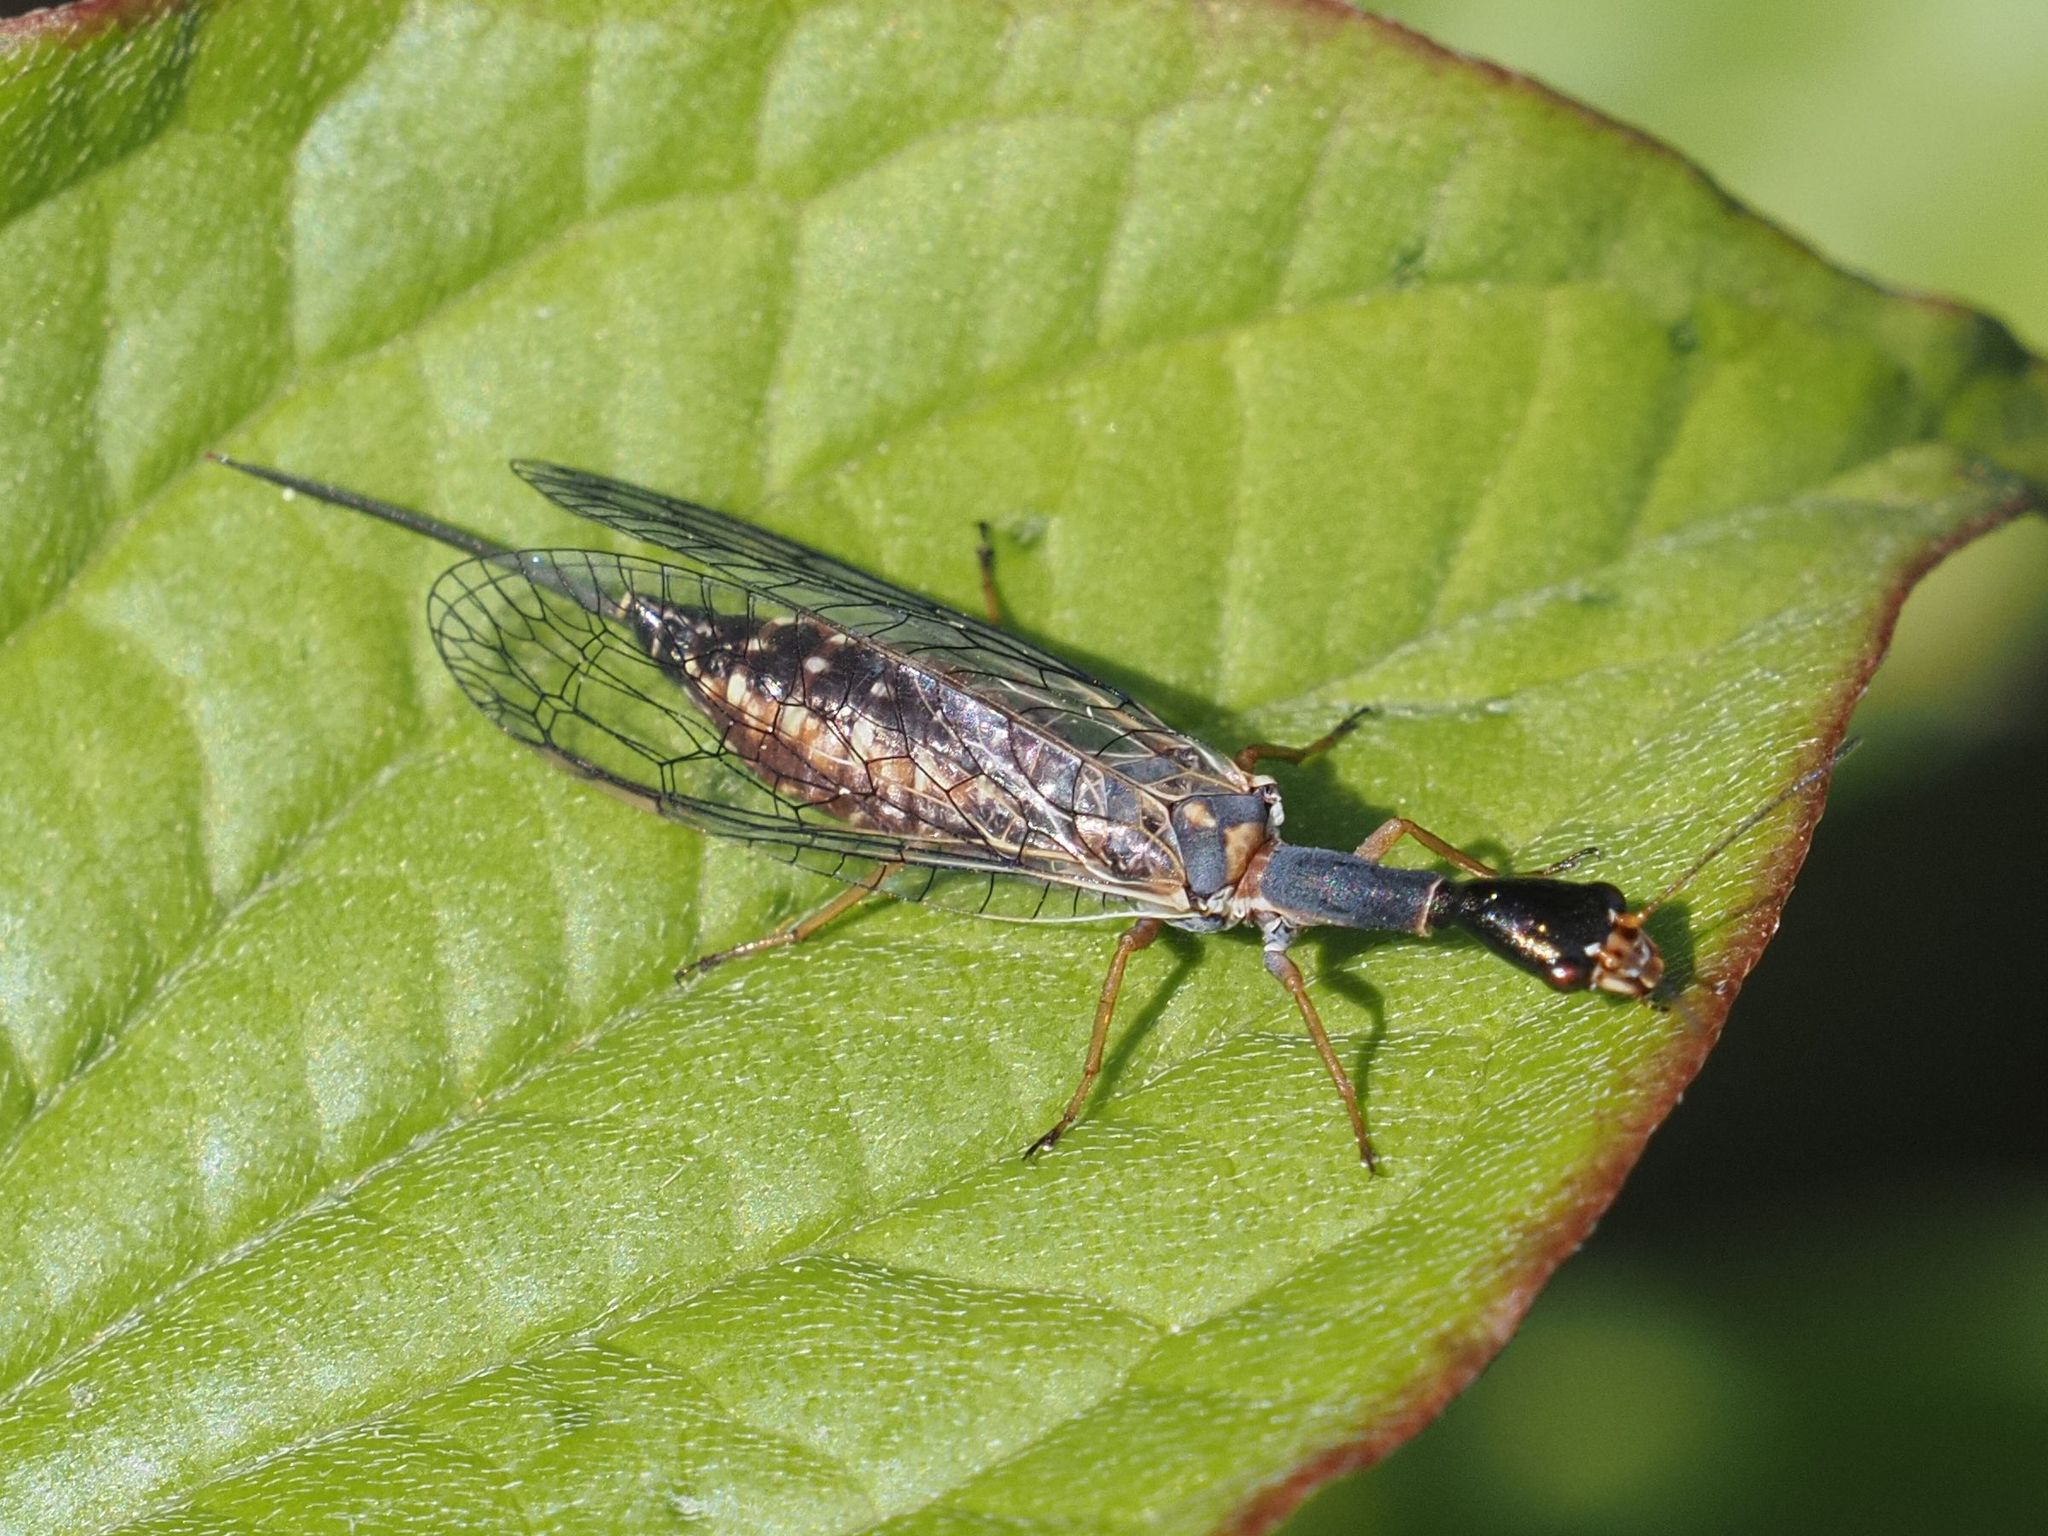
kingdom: Animalia
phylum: Arthropoda
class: Insecta
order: Raphidioptera
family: Raphidiidae
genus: Xanthostigma
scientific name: Xanthostigma xanthostigma
